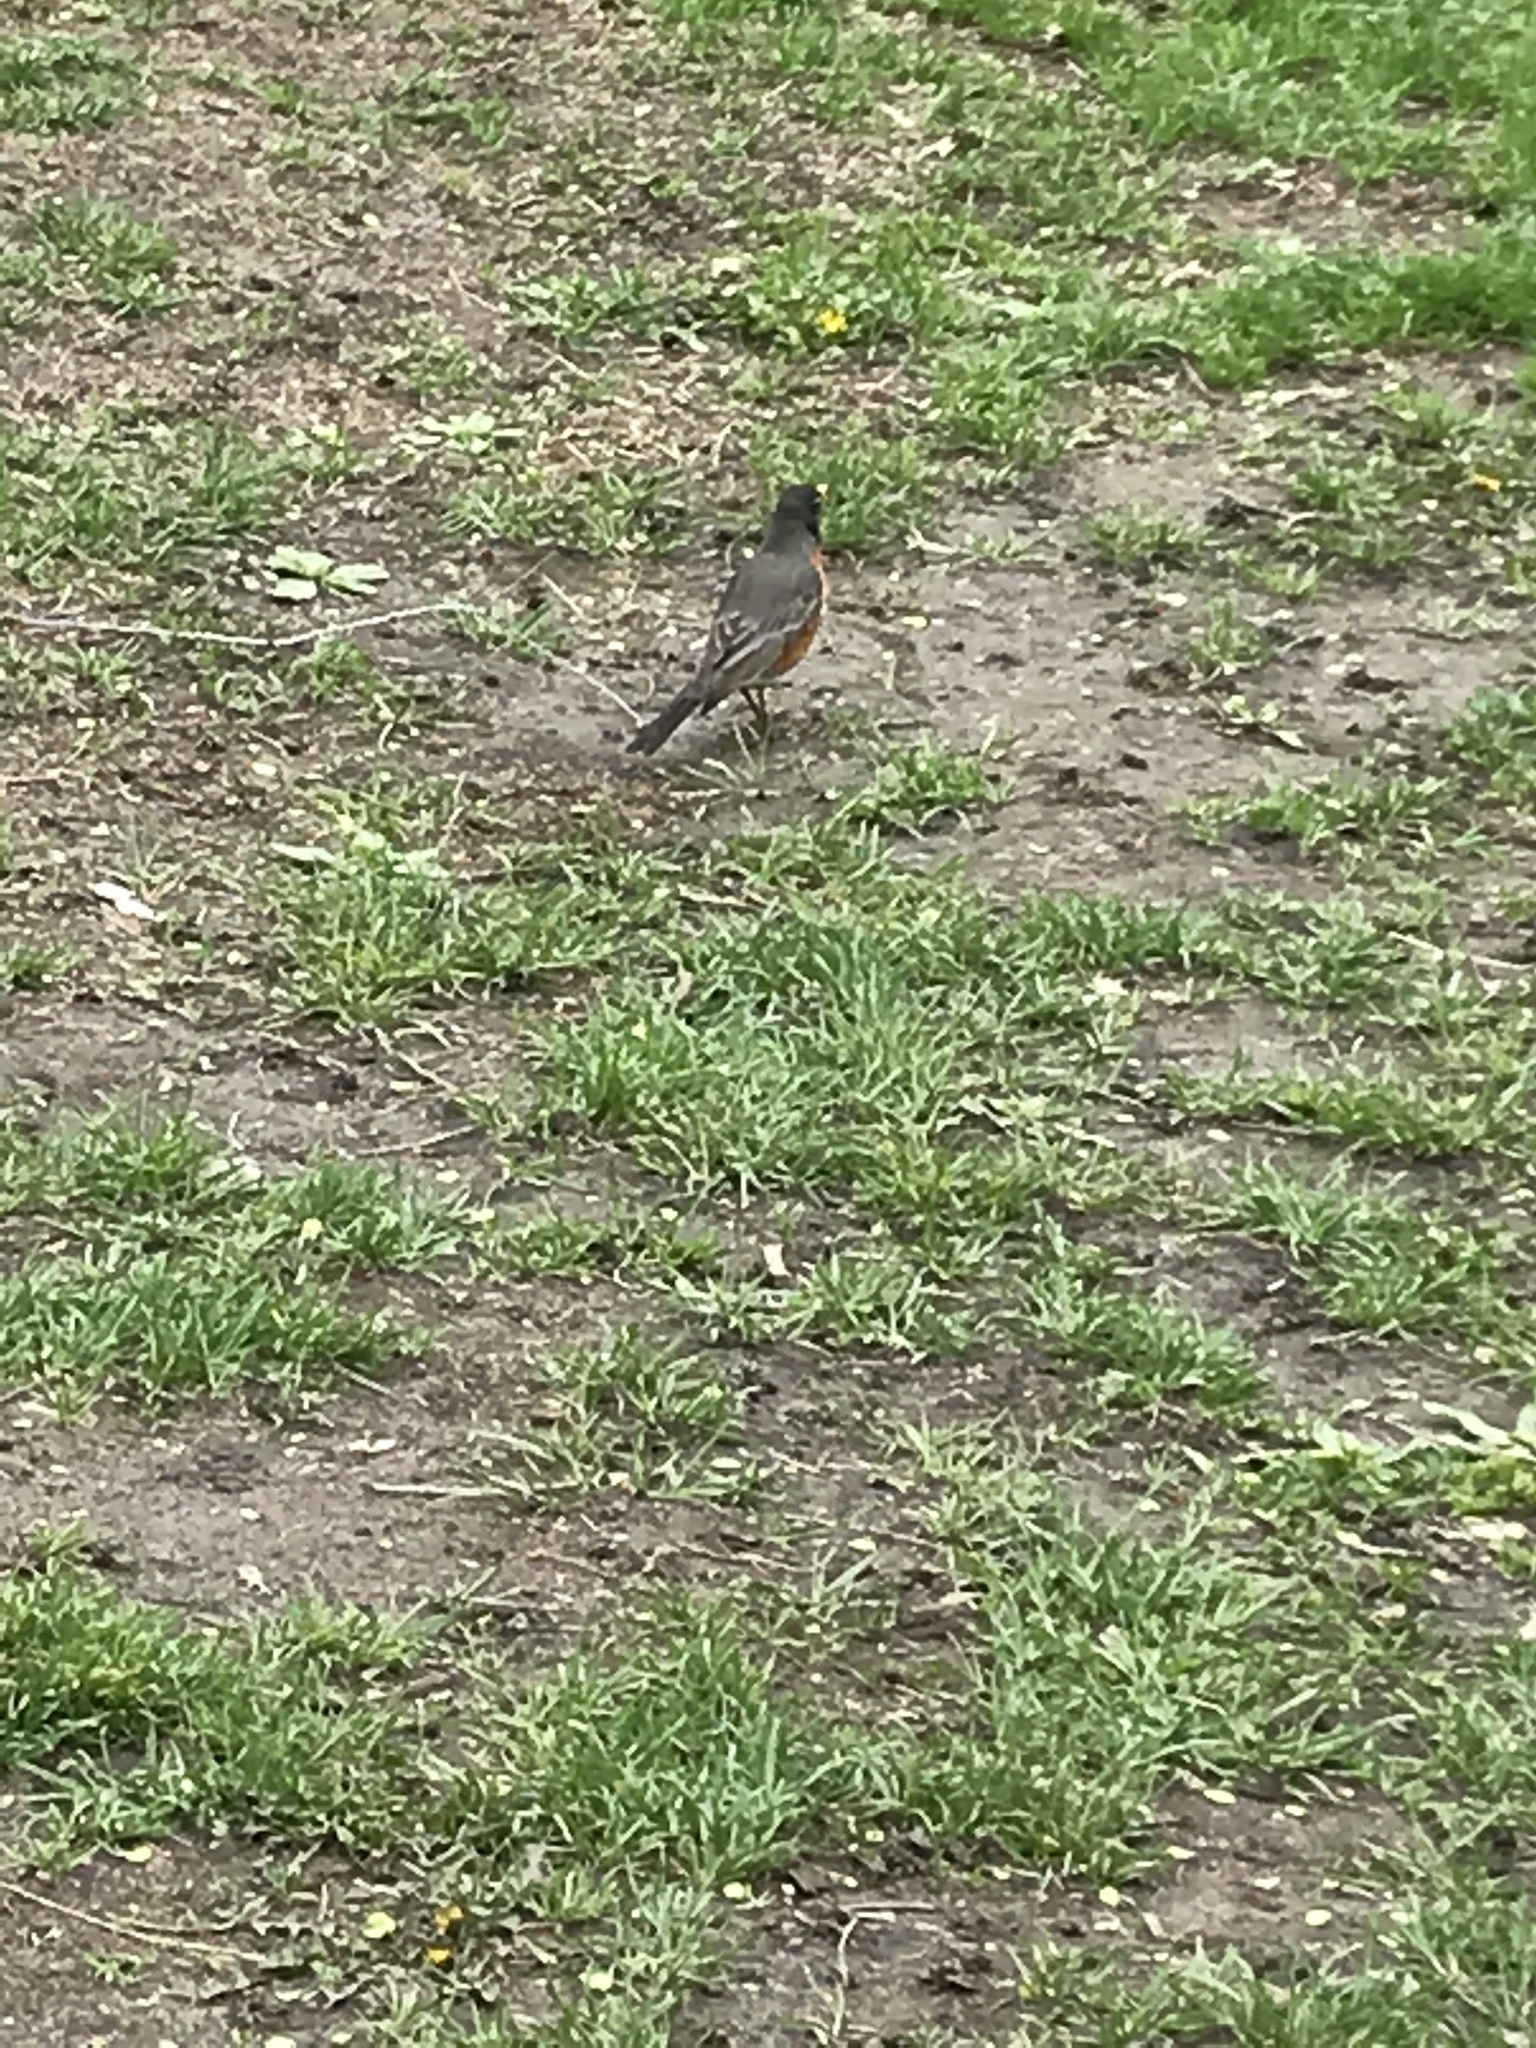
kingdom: Animalia
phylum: Chordata
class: Aves
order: Passeriformes
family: Turdidae
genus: Turdus
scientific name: Turdus migratorius
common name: American robin
